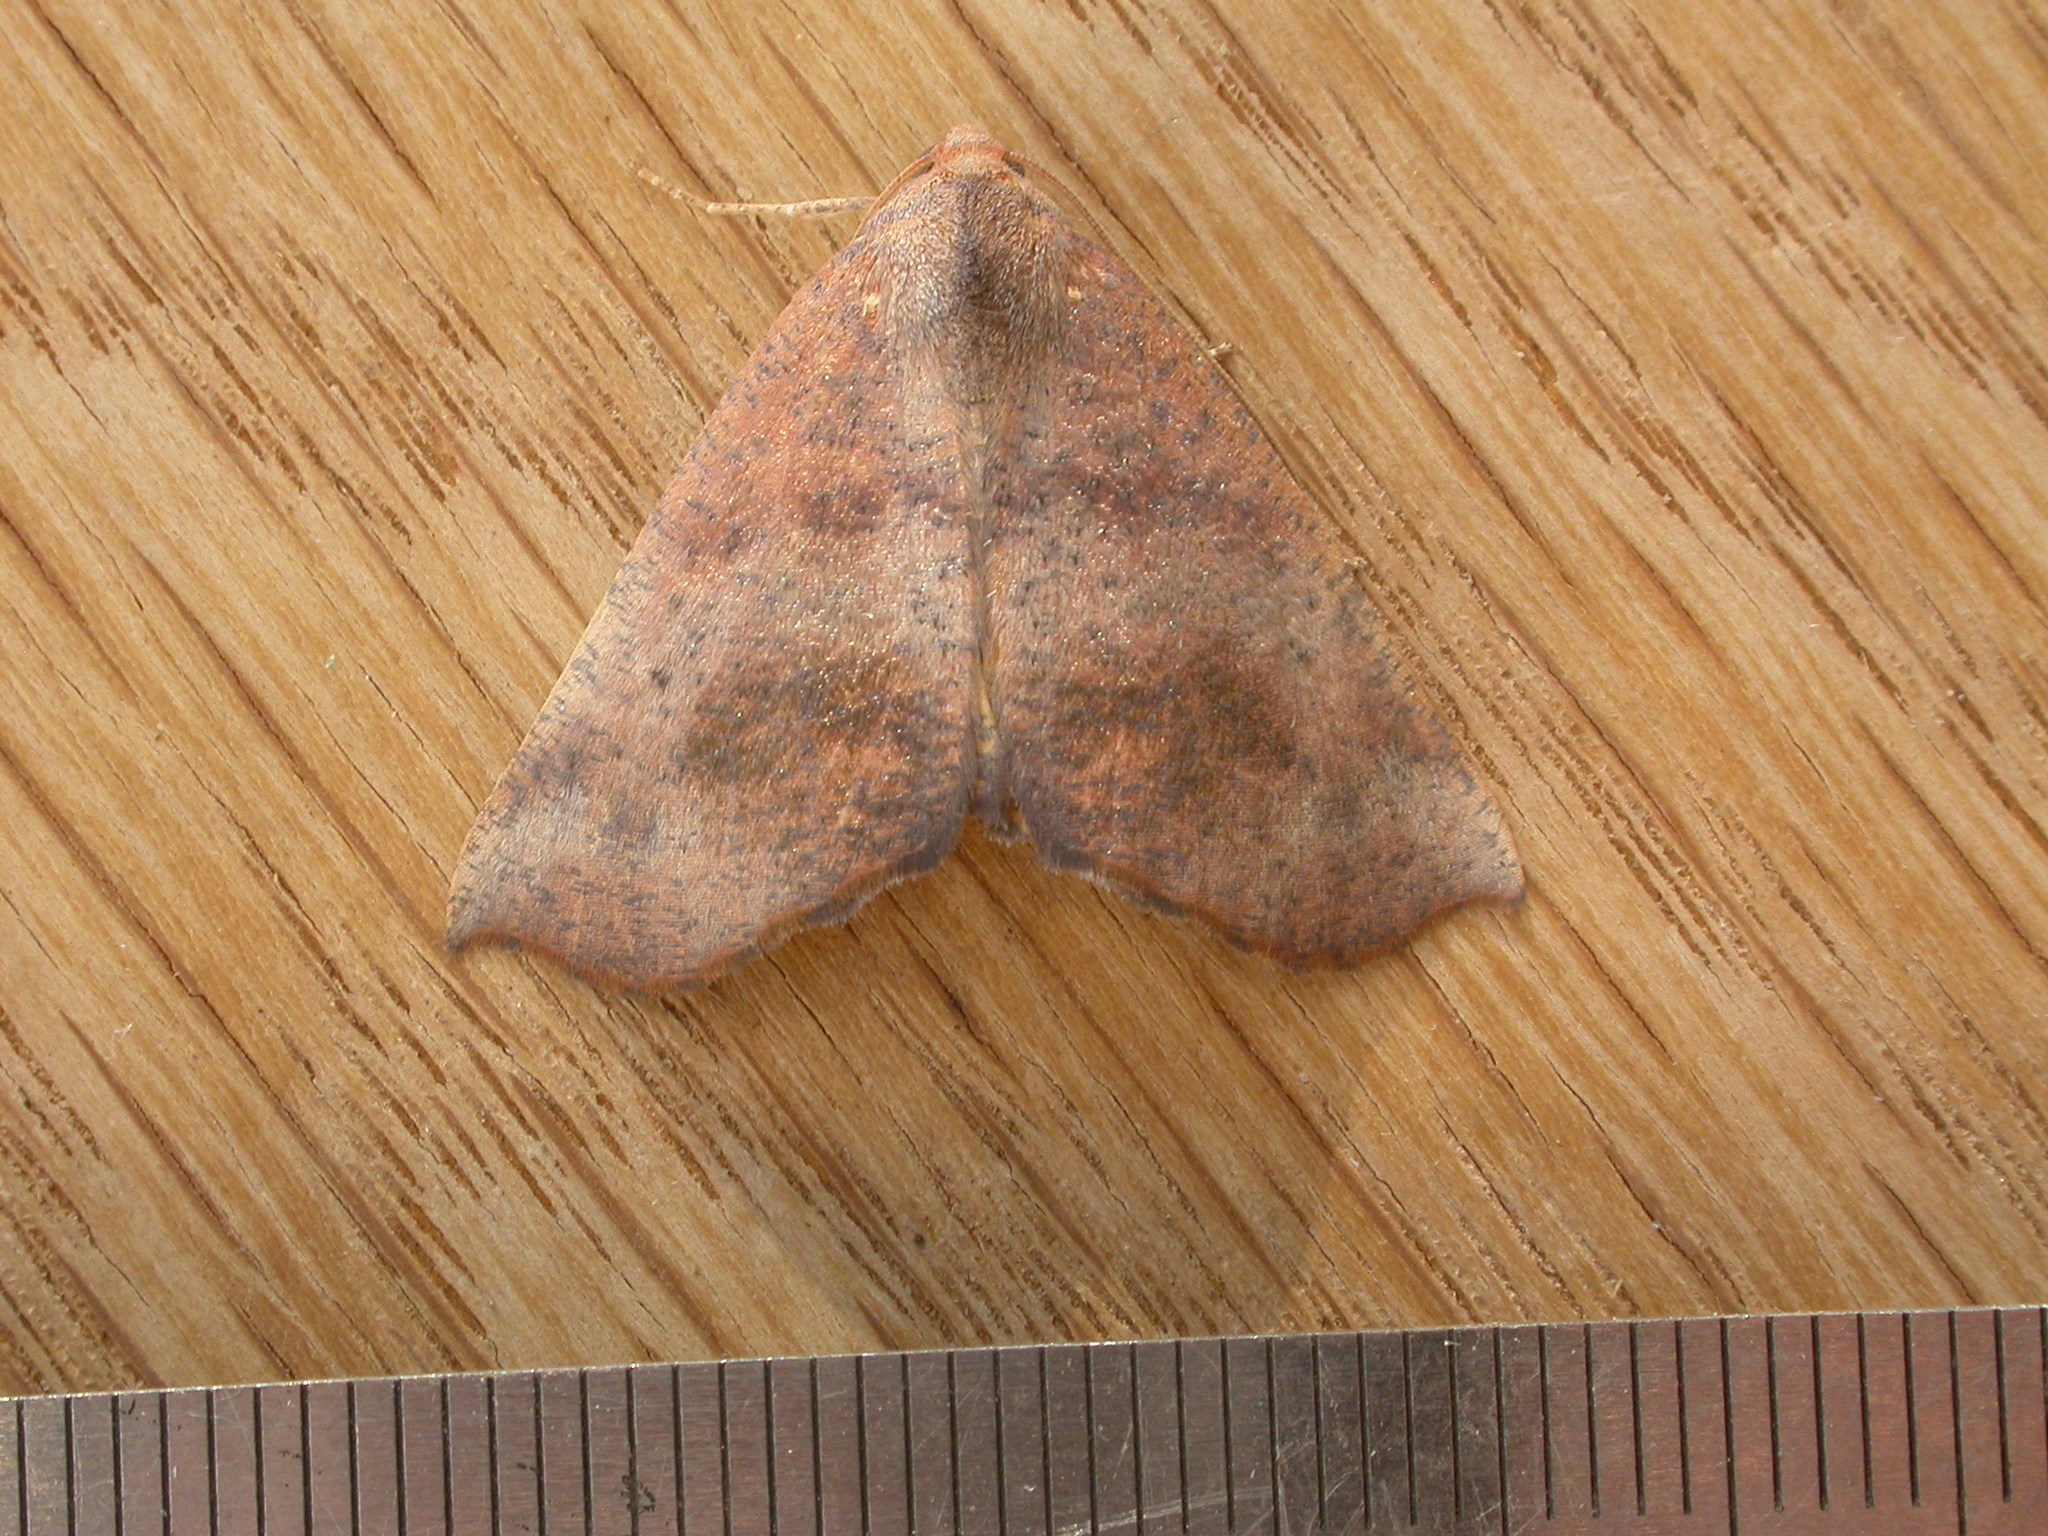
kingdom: Animalia
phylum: Arthropoda
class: Insecta
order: Lepidoptera
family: Geometridae
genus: Mnesampela
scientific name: Mnesampela privata
